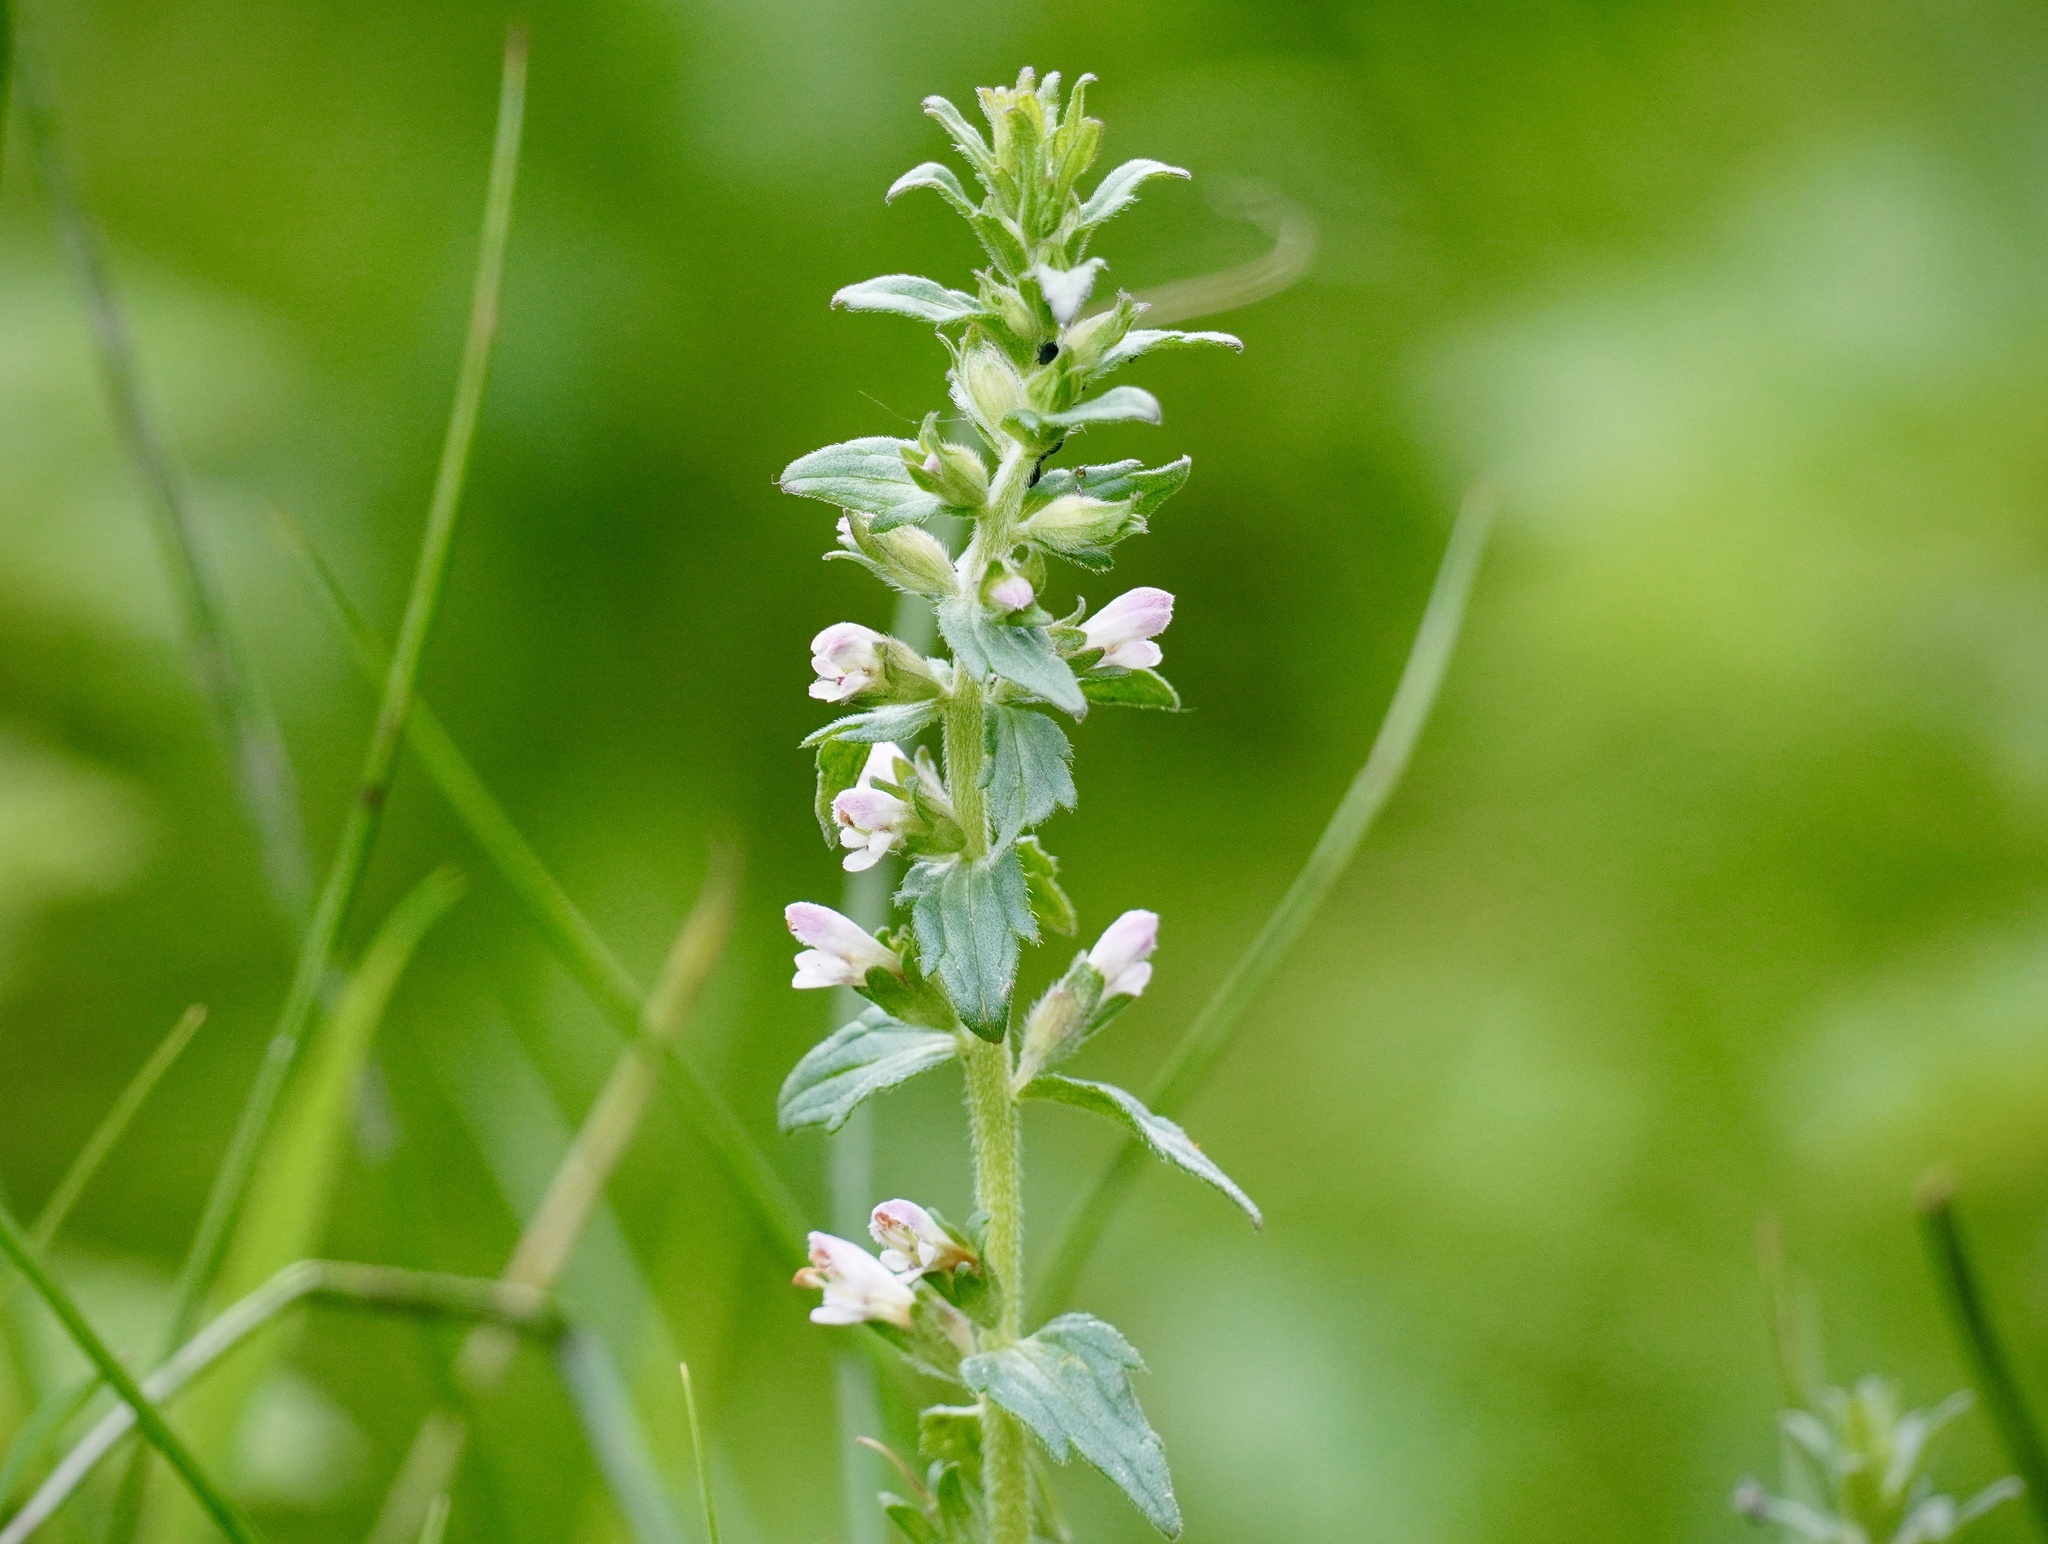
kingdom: Plantae
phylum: Tracheophyta
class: Magnoliopsida
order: Lamiales
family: Orobanchaceae
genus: Odontites
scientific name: Odontites vernus
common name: Red bartsia
